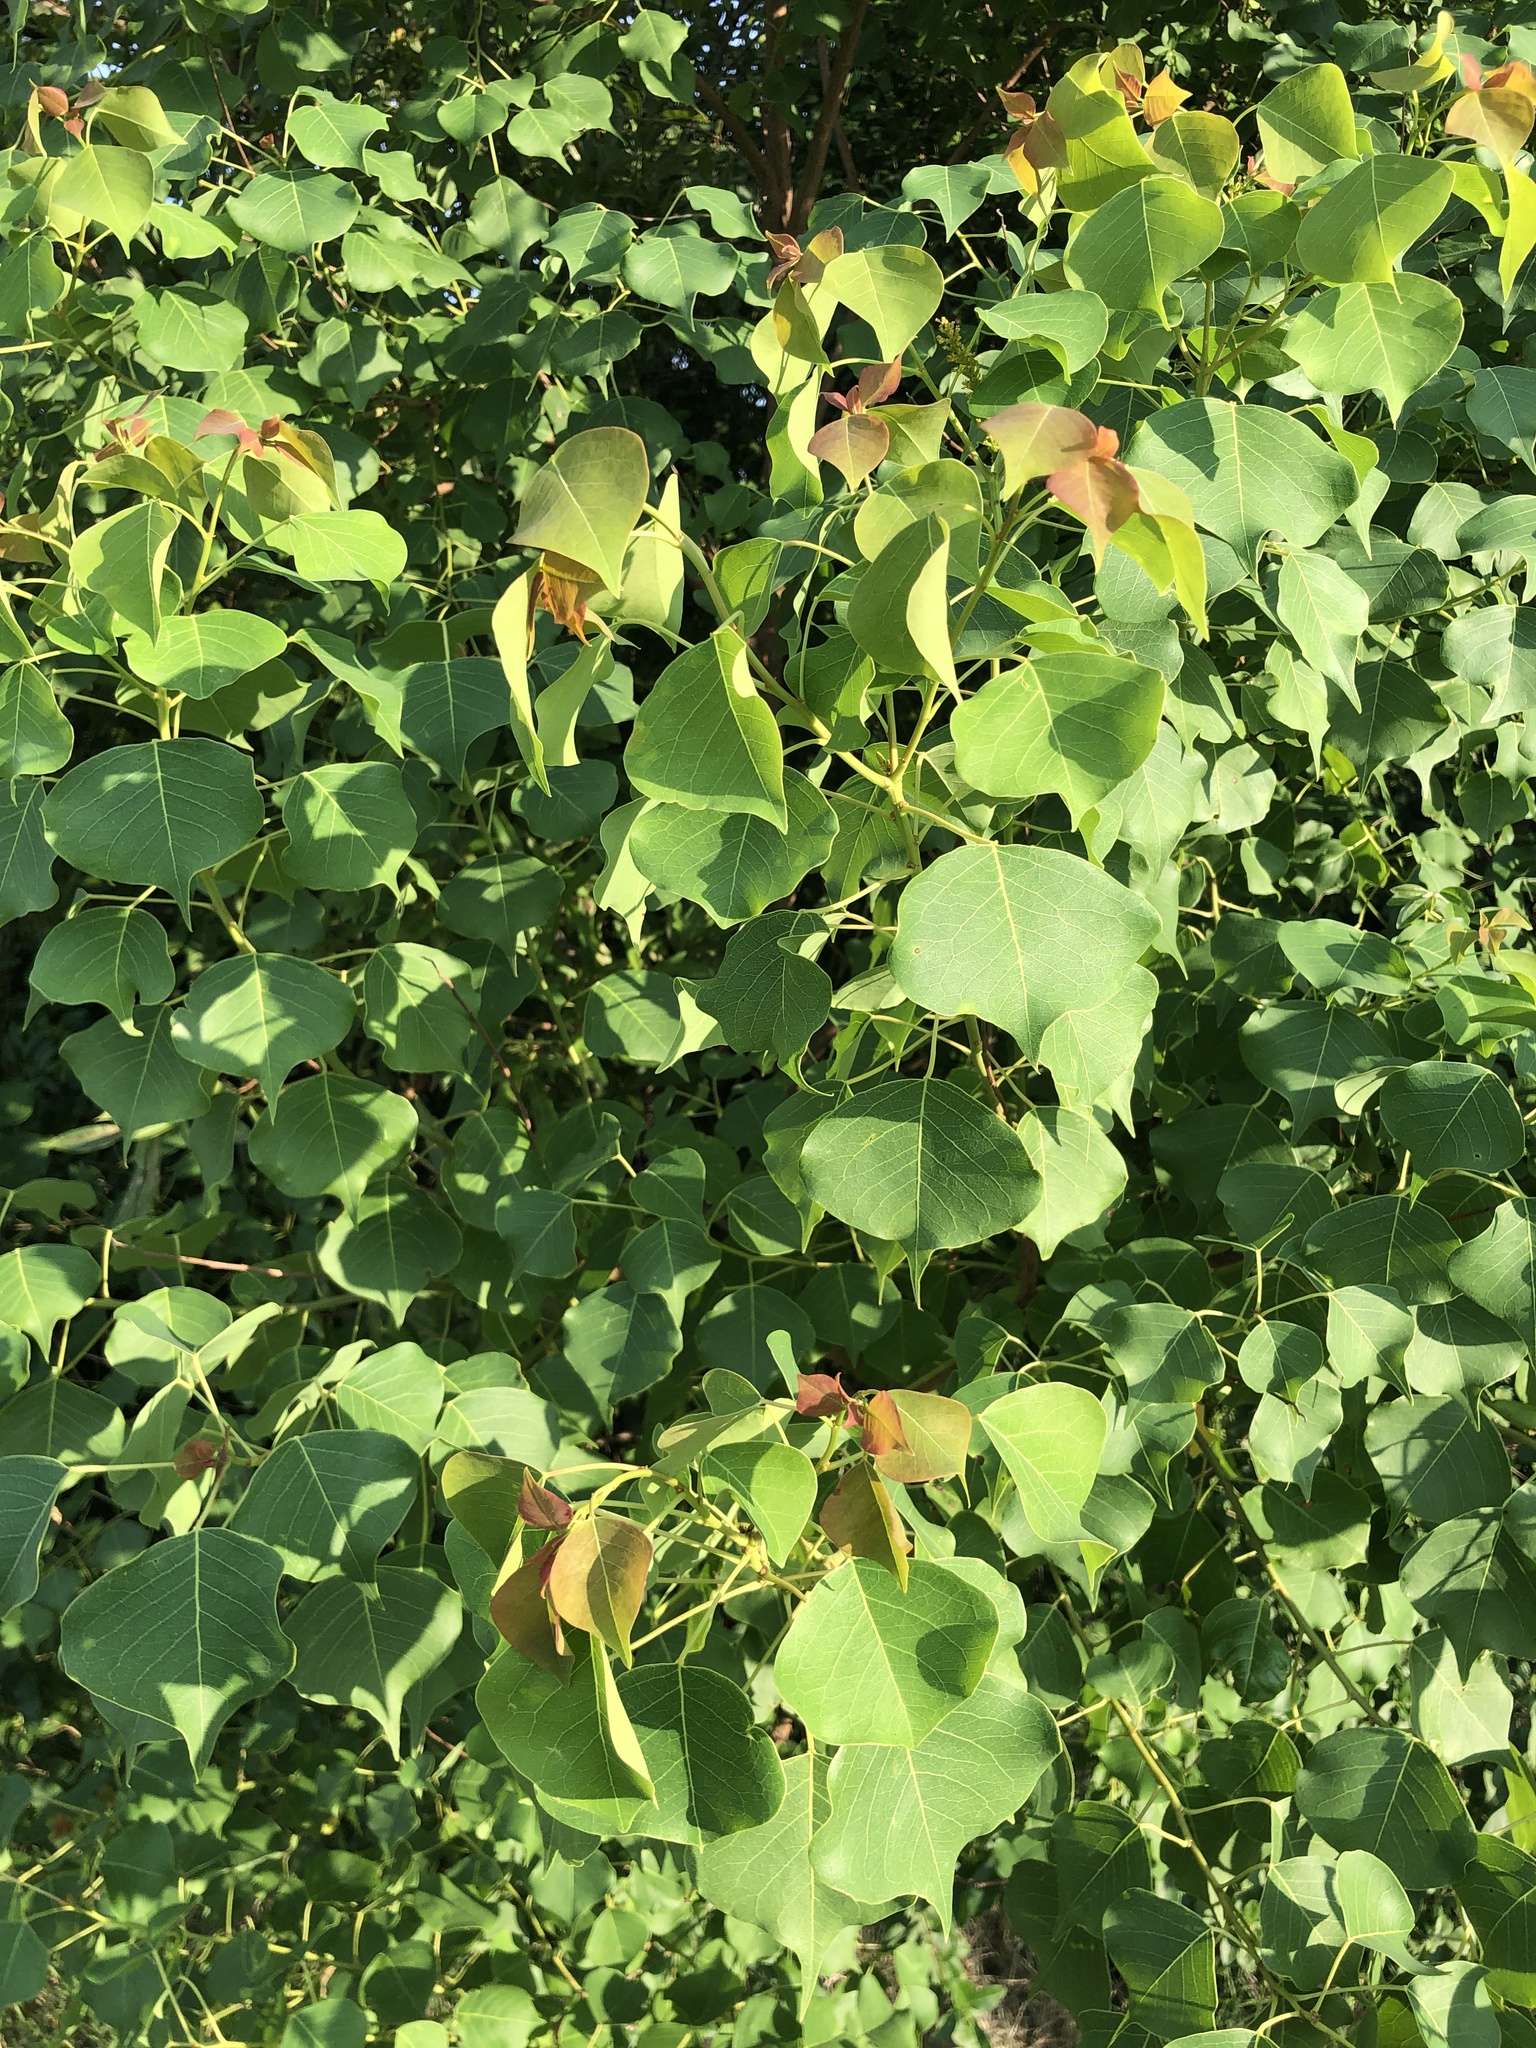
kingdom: Plantae
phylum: Tracheophyta
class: Magnoliopsida
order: Malpighiales
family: Euphorbiaceae
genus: Triadica
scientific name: Triadica sebifera
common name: Chinese tallow
